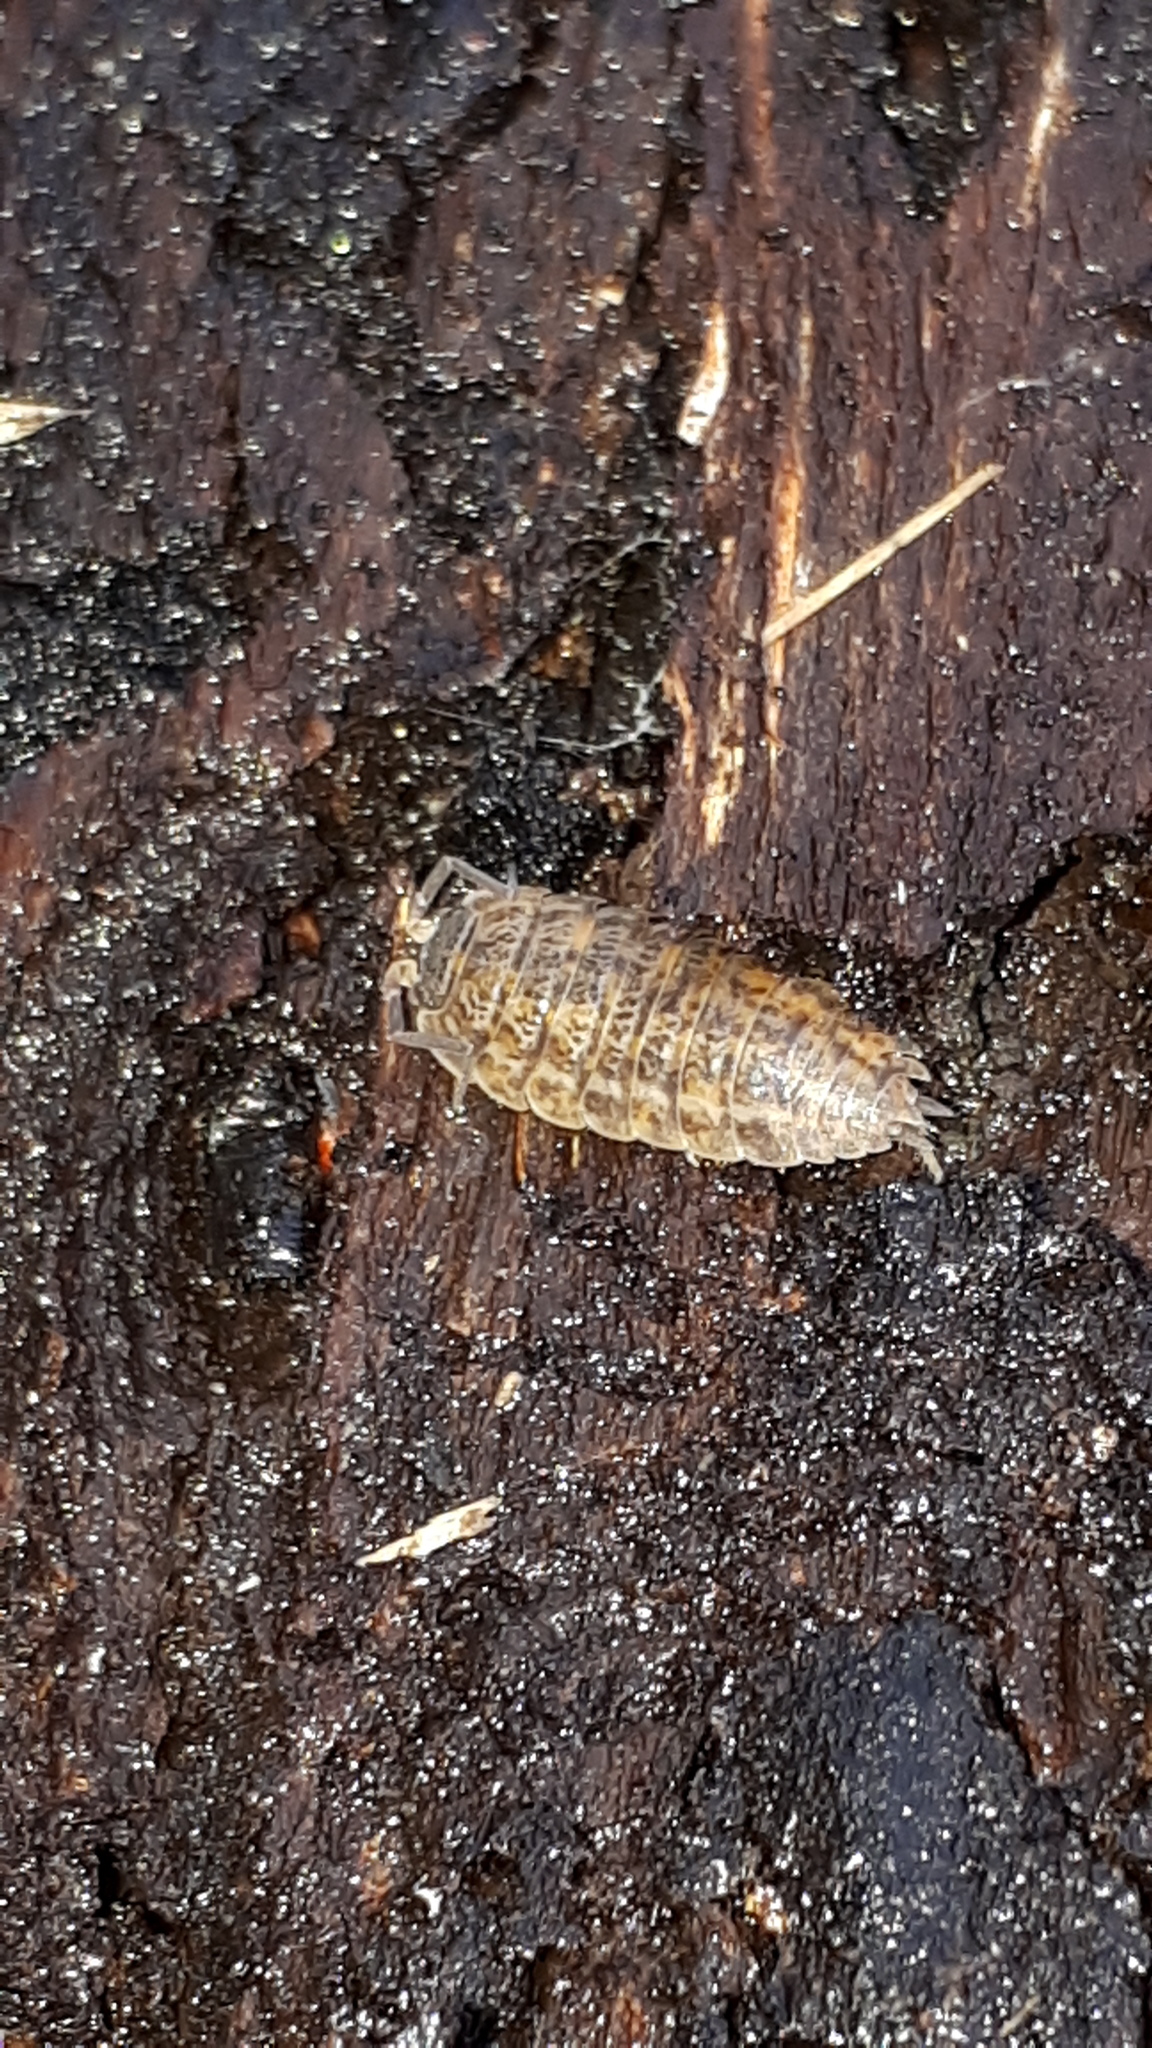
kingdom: Animalia
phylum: Arthropoda
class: Malacostraca
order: Isopoda
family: Trachelipodidae
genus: Trachelipus
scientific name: Trachelipus rathkii
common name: Isopod
